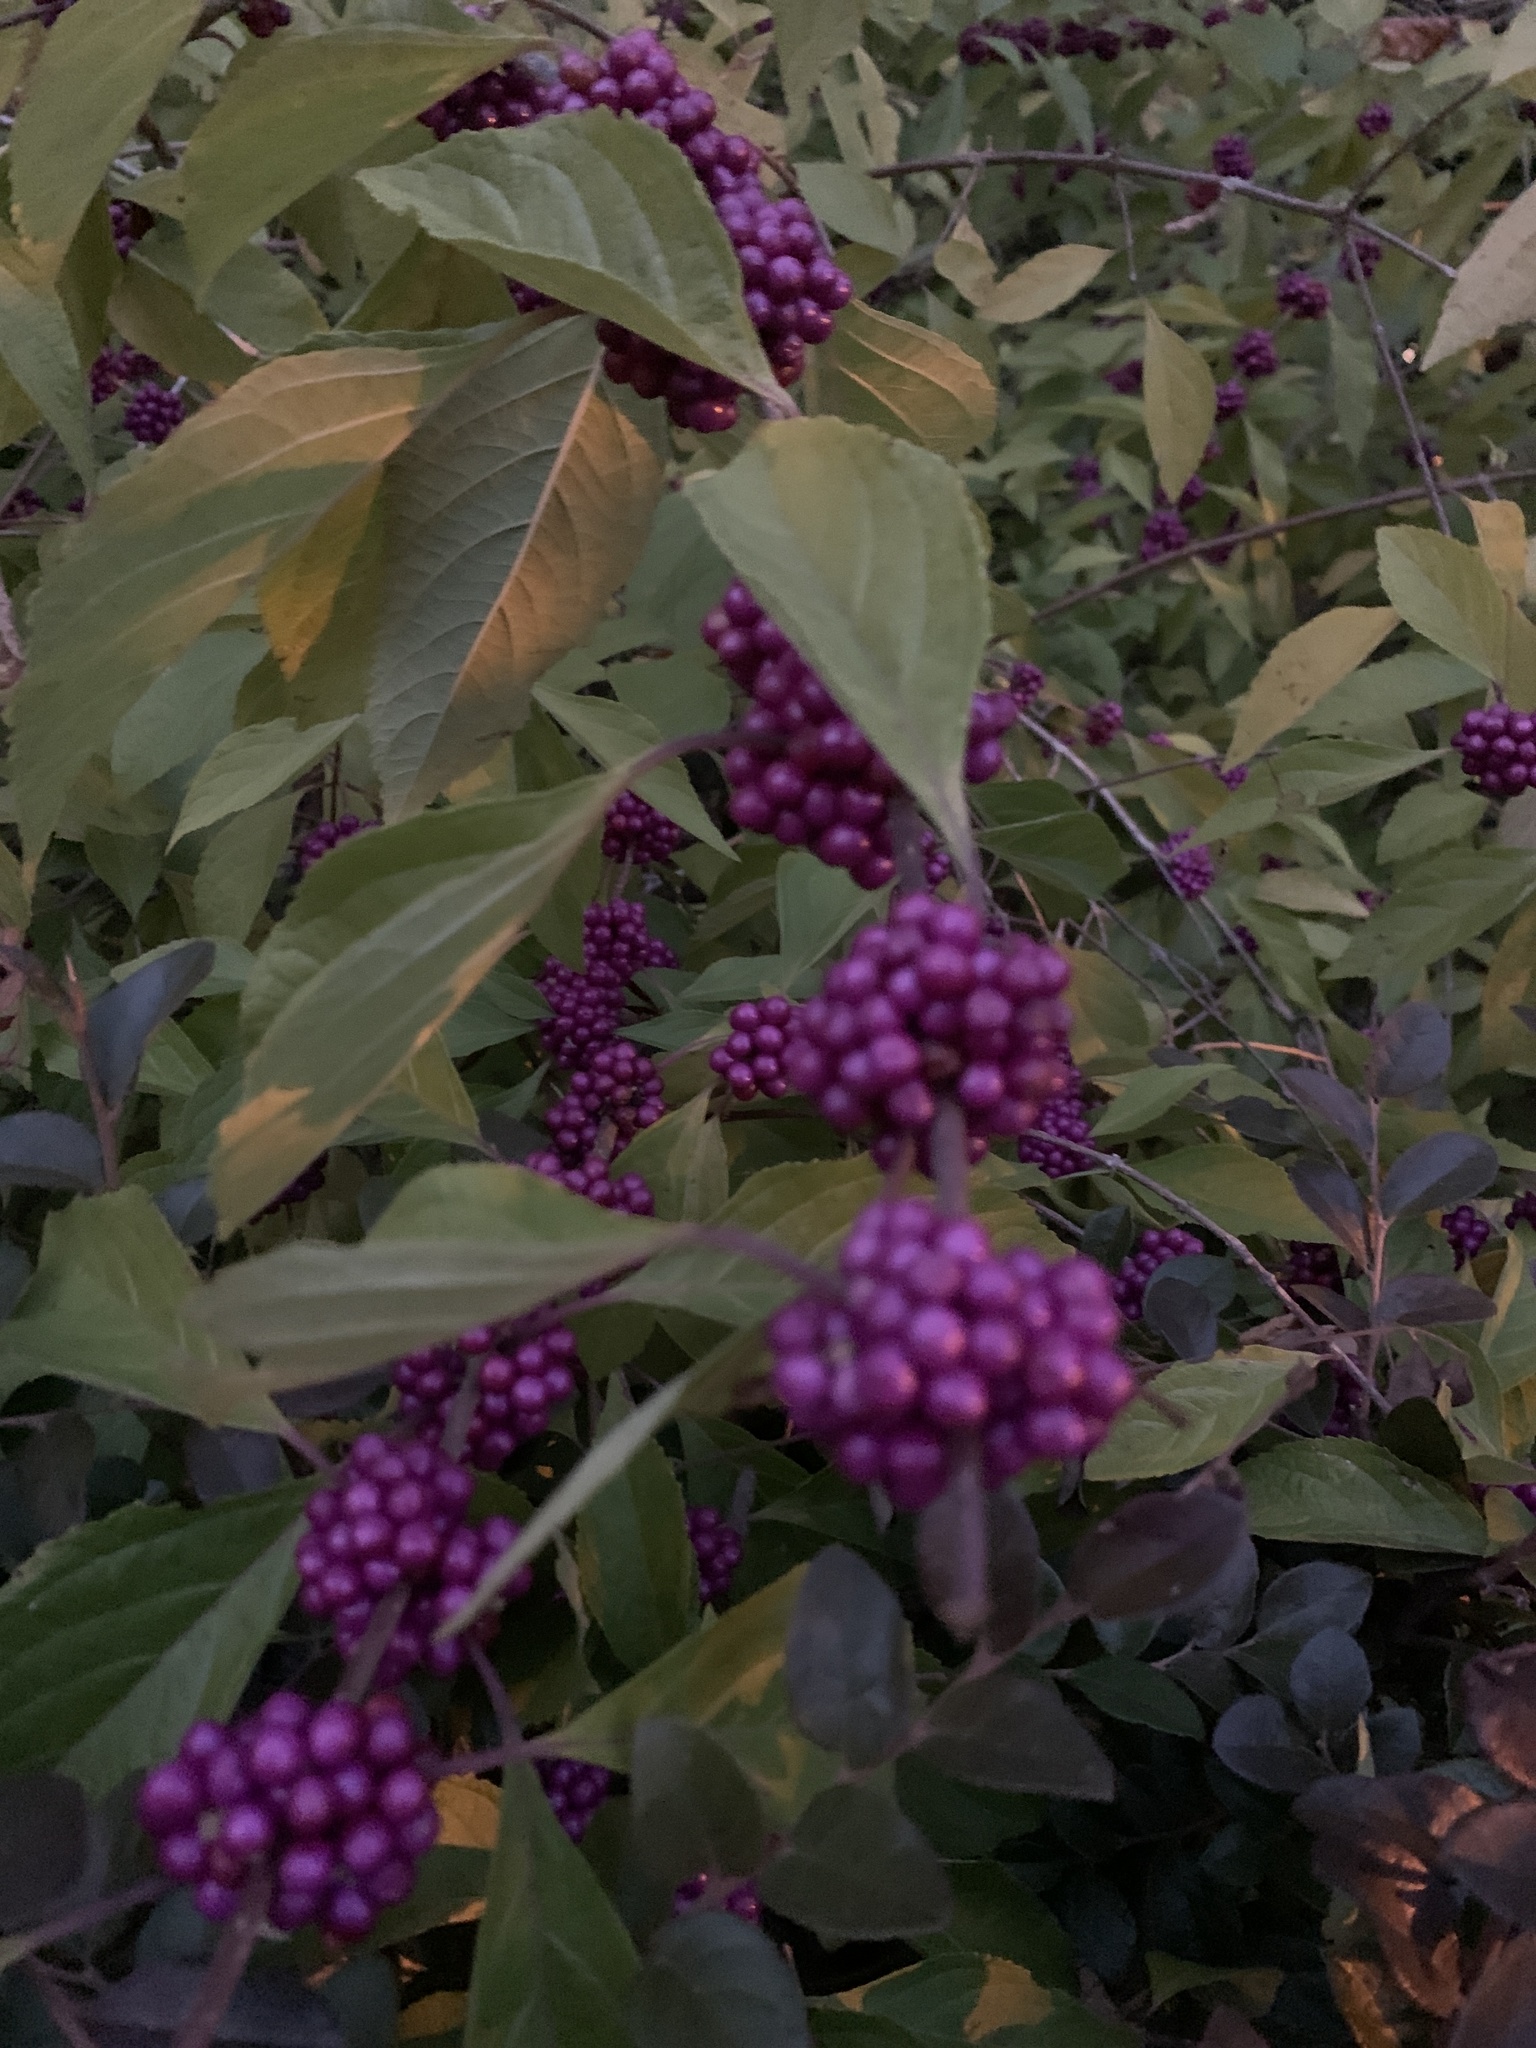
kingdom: Plantae
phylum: Tracheophyta
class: Magnoliopsida
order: Lamiales
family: Lamiaceae
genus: Callicarpa
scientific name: Callicarpa americana
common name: American beautyberry
